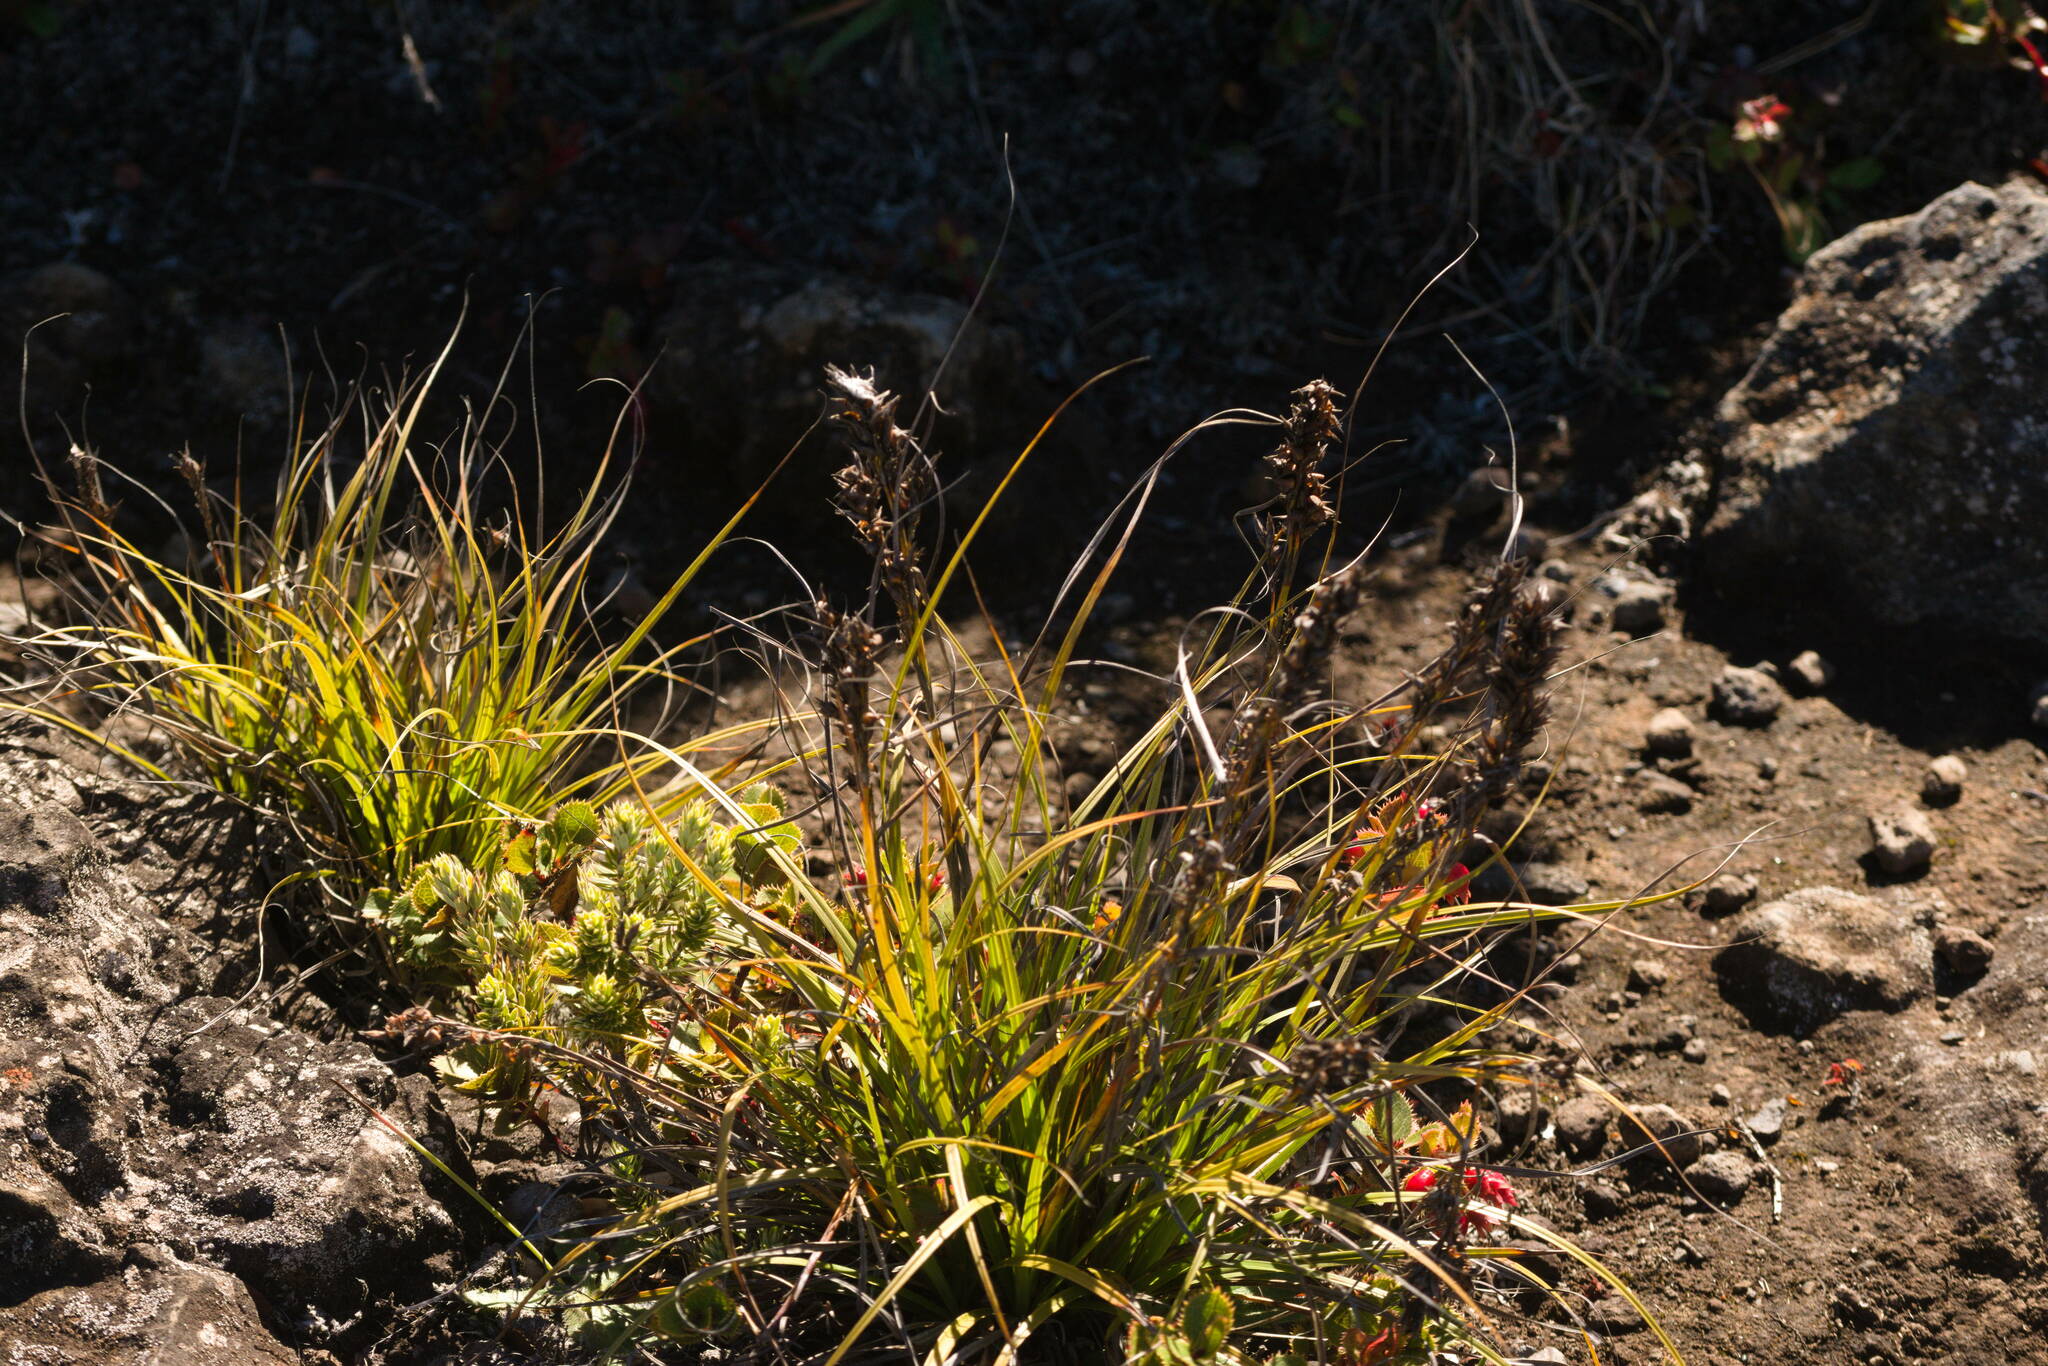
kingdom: Plantae
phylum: Tracheophyta
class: Liliopsida
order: Poales
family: Cyperaceae
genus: Morelotia
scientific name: Morelotia gahniiformis
